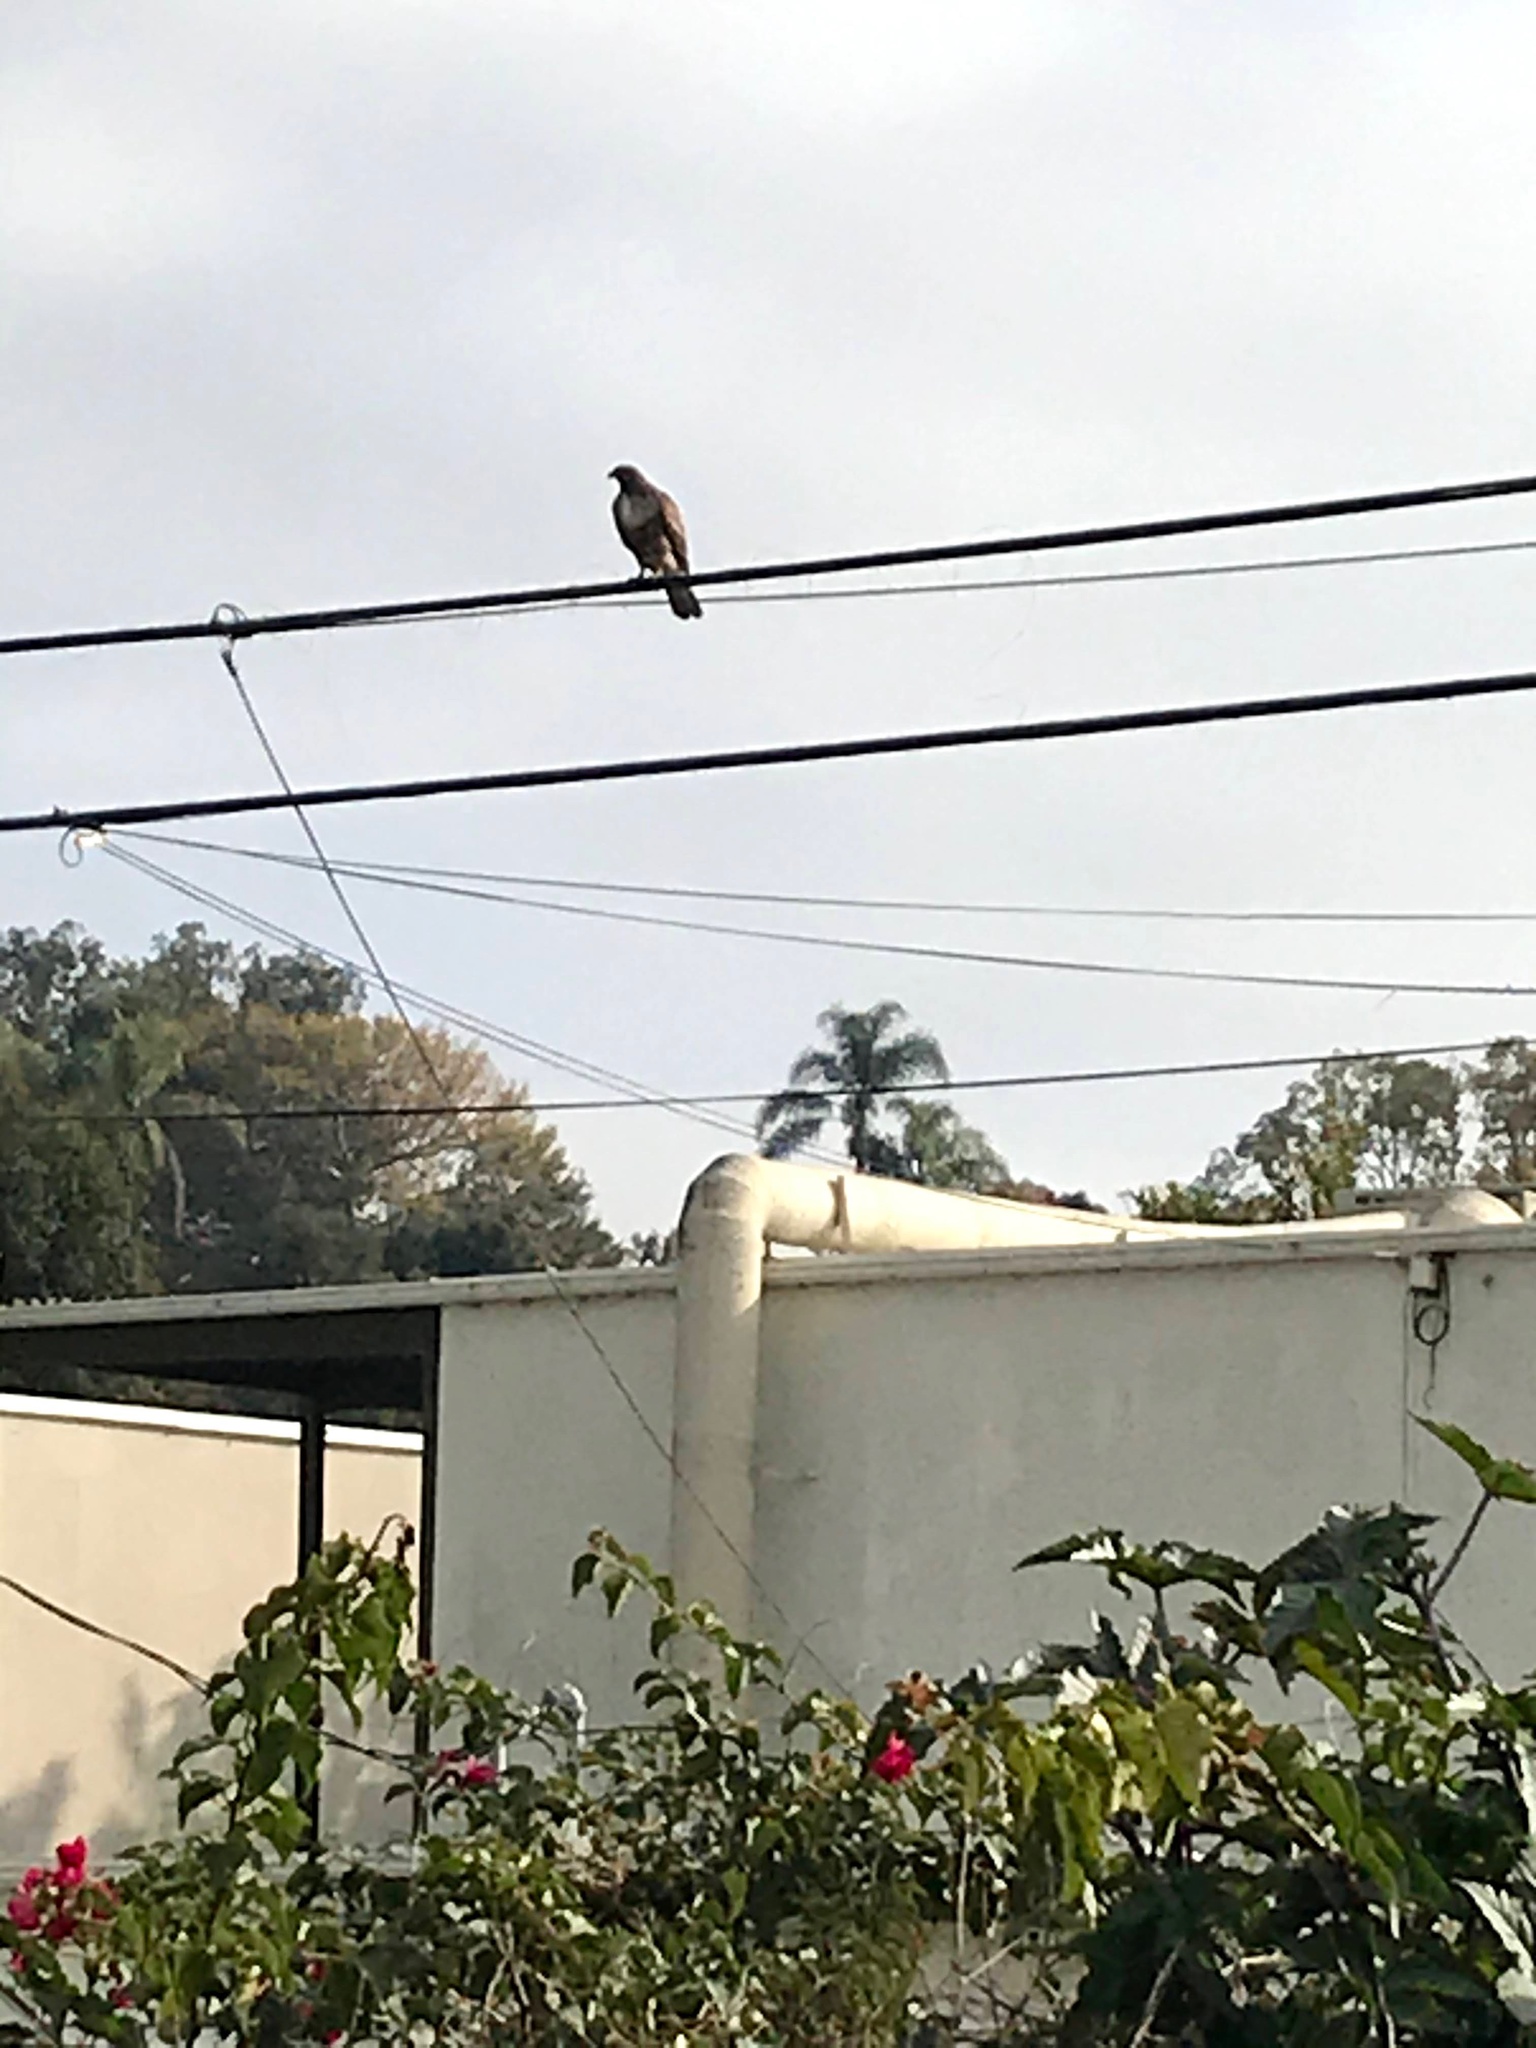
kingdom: Animalia
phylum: Chordata
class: Aves
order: Accipitriformes
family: Accipitridae
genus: Buteo
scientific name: Buteo jamaicensis
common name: Red-tailed hawk
